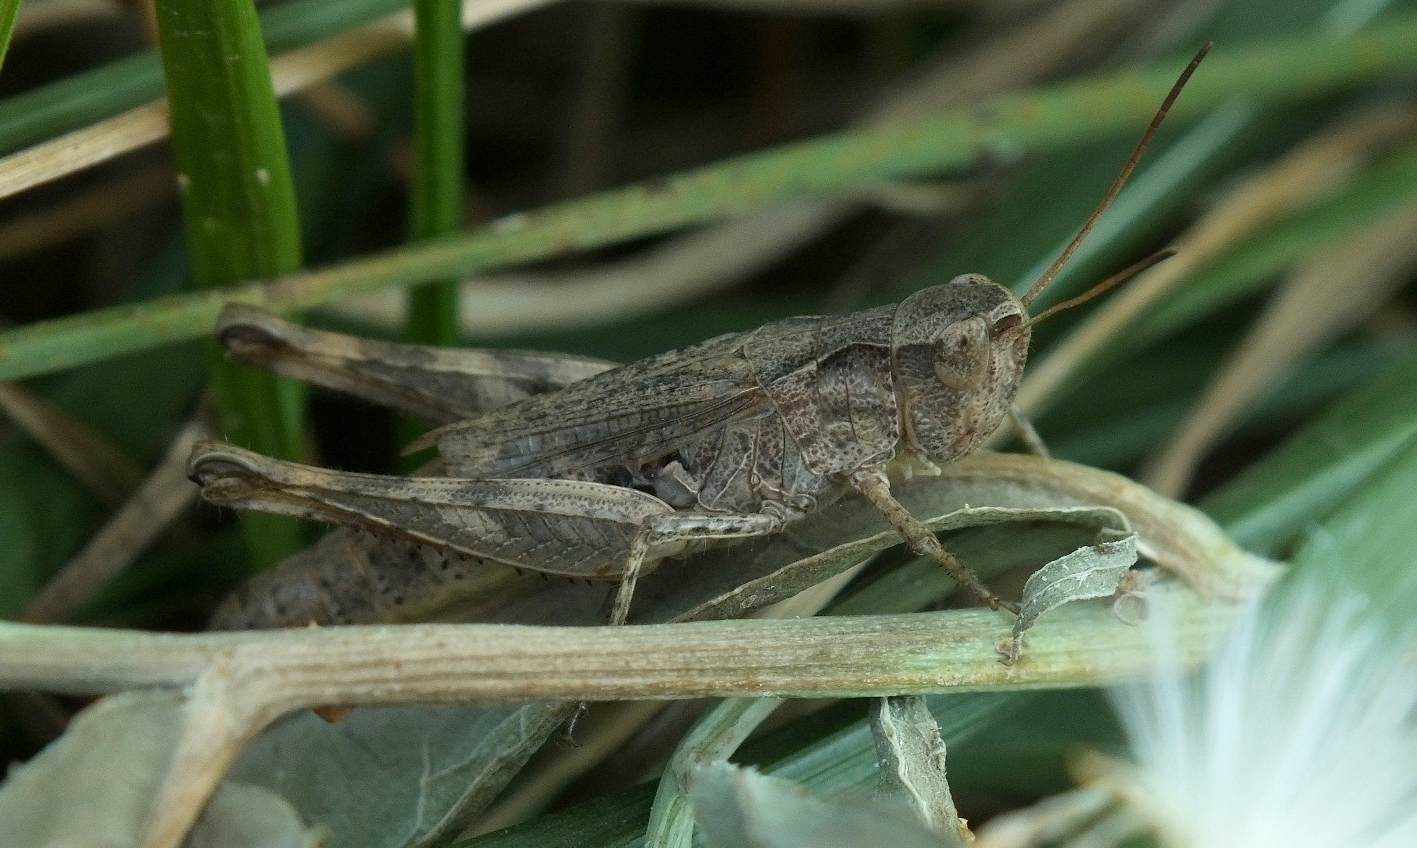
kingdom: Animalia
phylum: Arthropoda
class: Insecta
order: Orthoptera
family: Acrididae
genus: Chorthippus
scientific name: Chorthippus macrocerus
